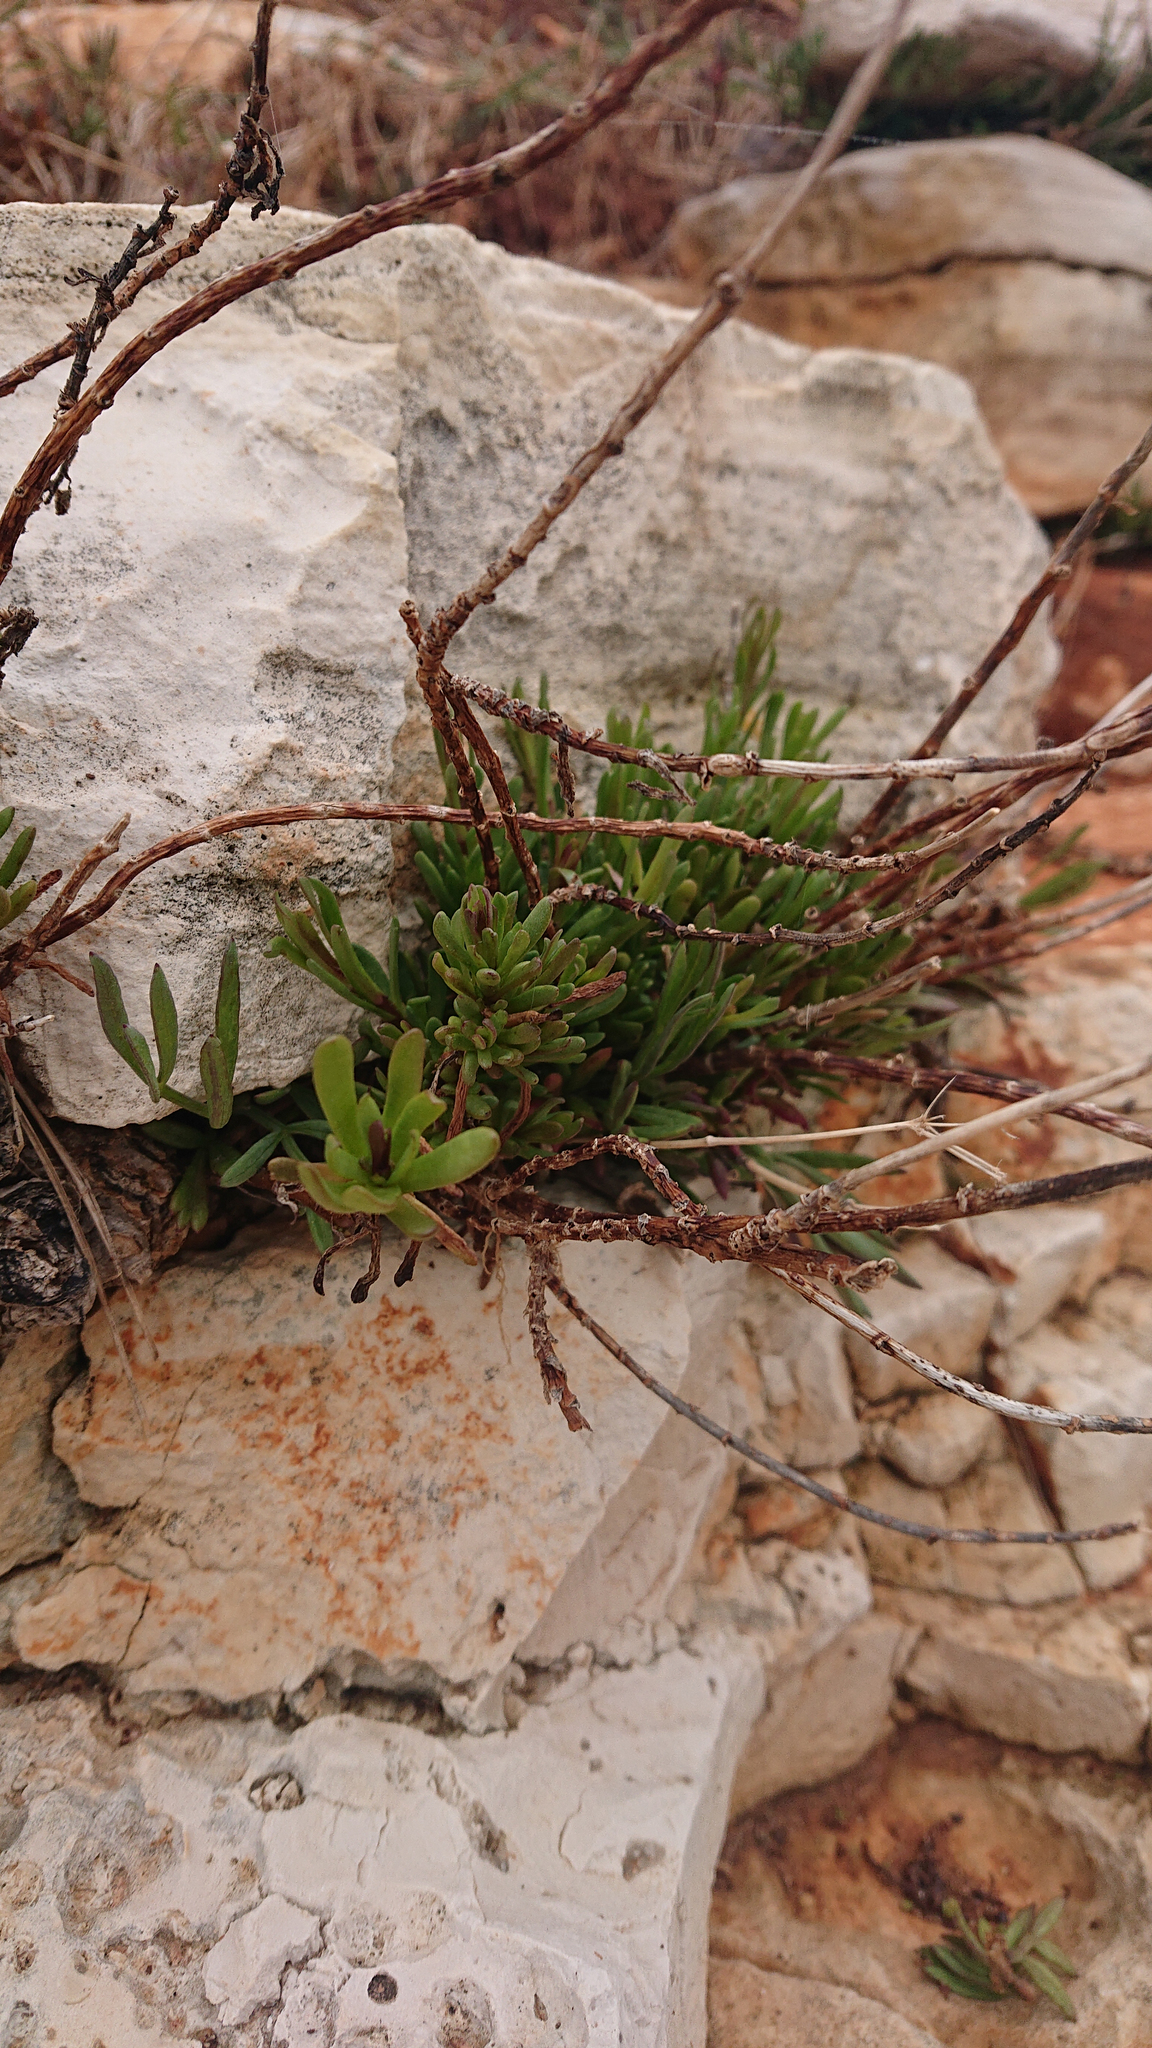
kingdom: Plantae
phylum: Tracheophyta
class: Magnoliopsida
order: Apiales
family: Apiaceae
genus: Crithmum
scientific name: Crithmum maritimum
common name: Rock samphire
